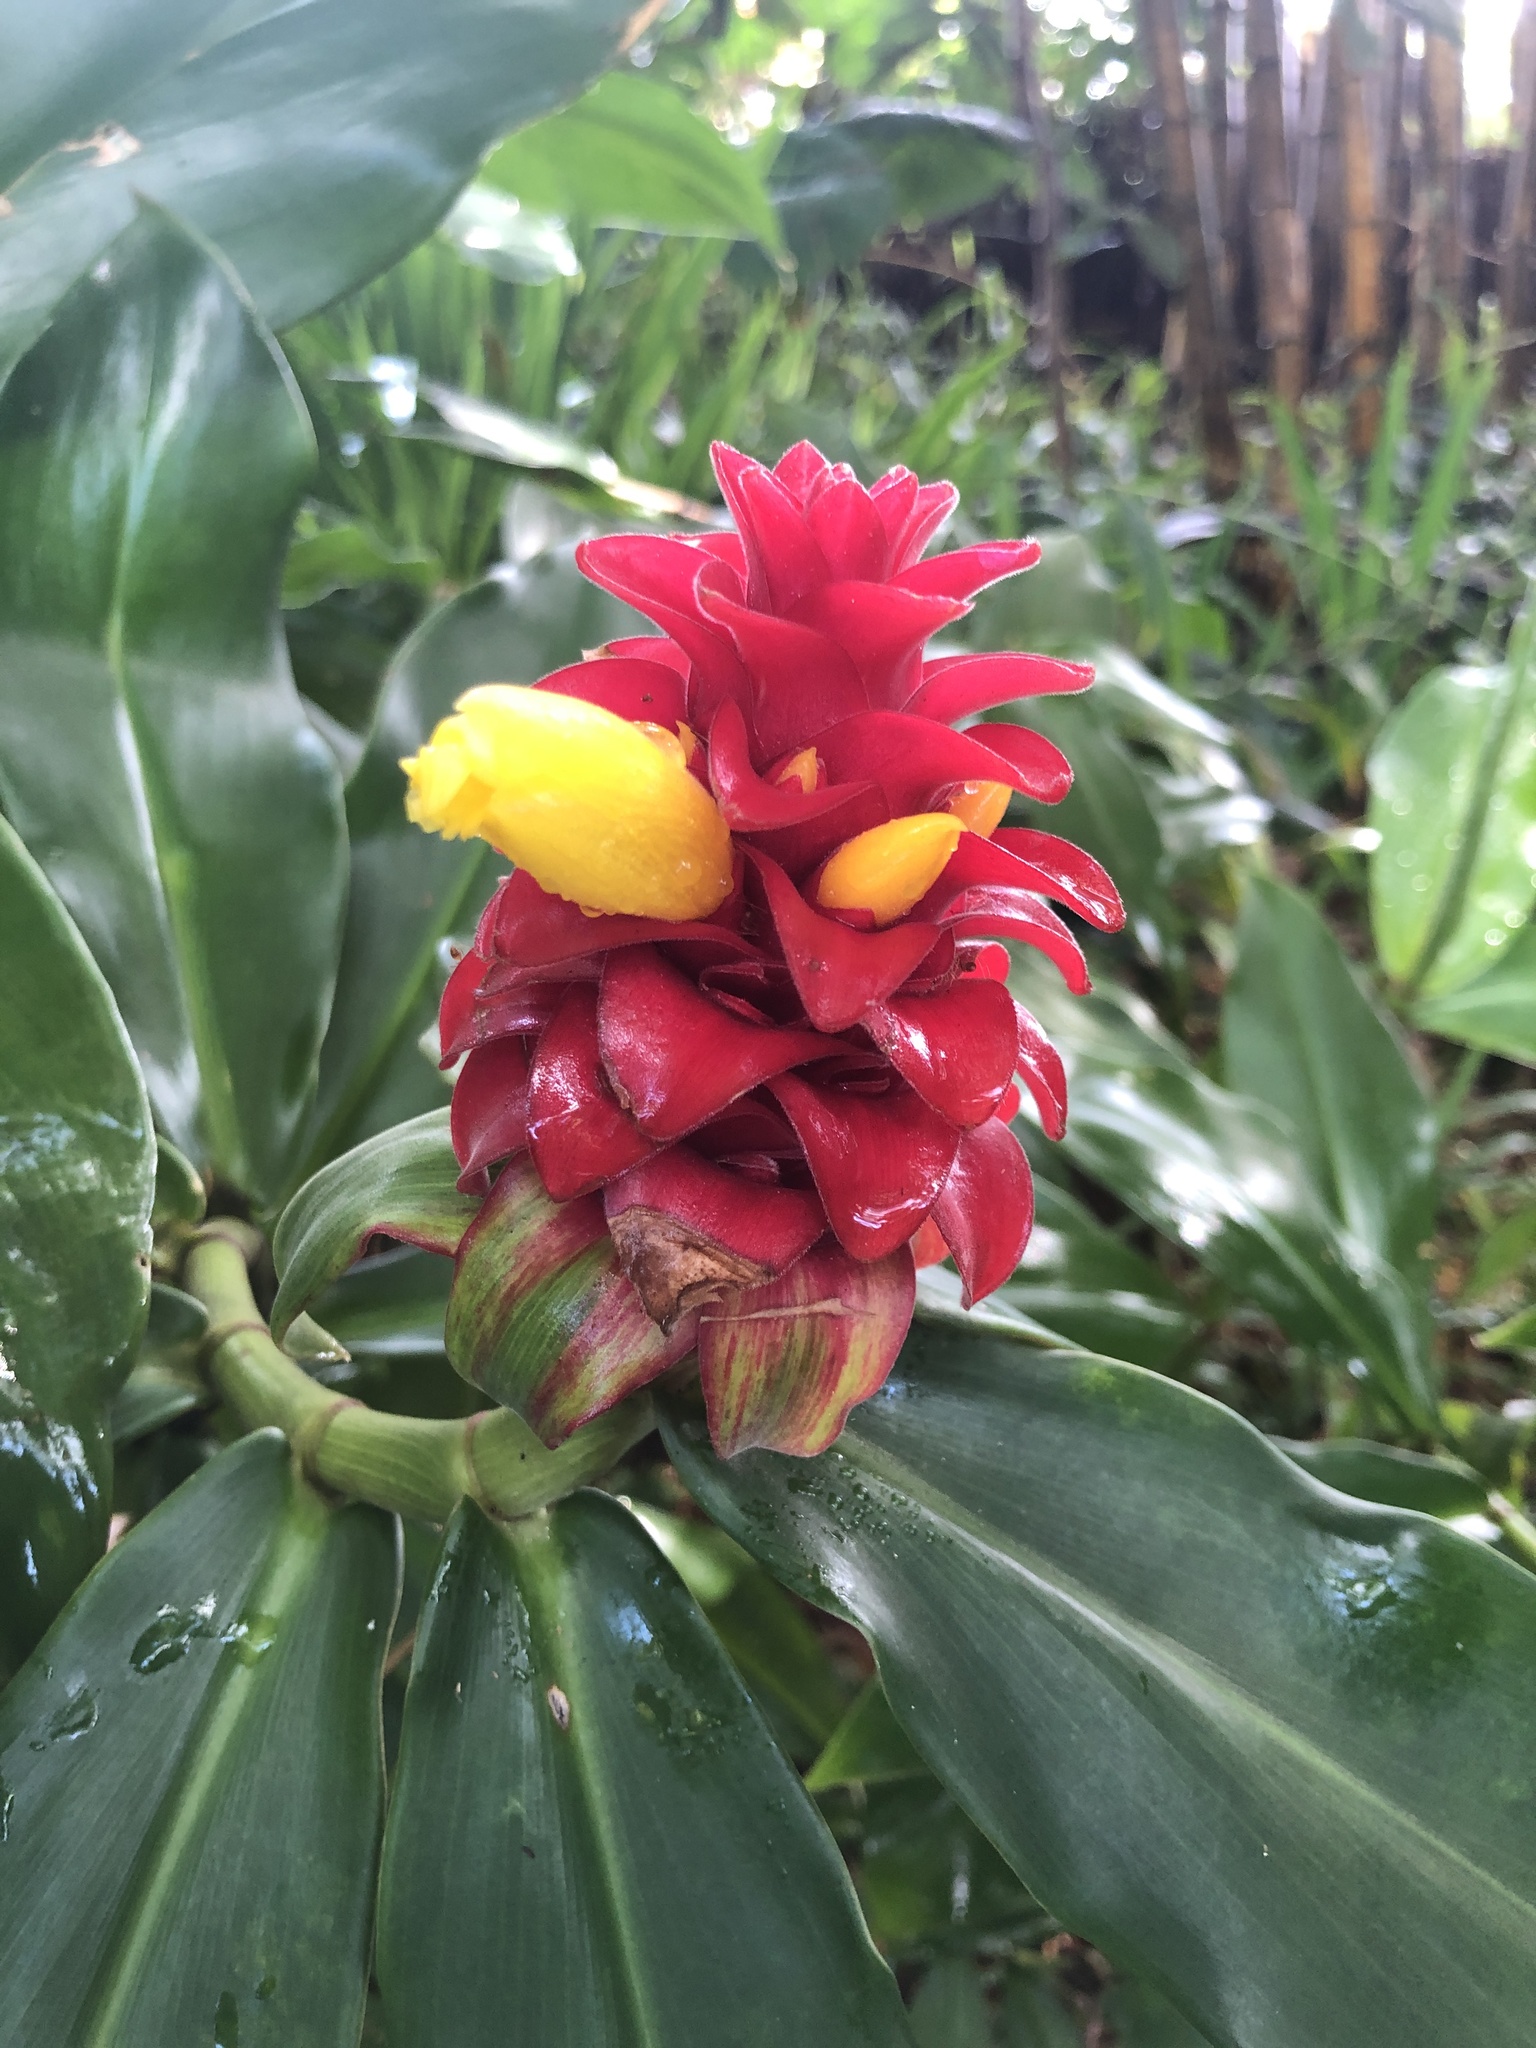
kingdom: Plantae
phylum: Tracheophyta
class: Liliopsida
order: Zingiberales
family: Costaceae
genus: Costus
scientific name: Costus comosus
